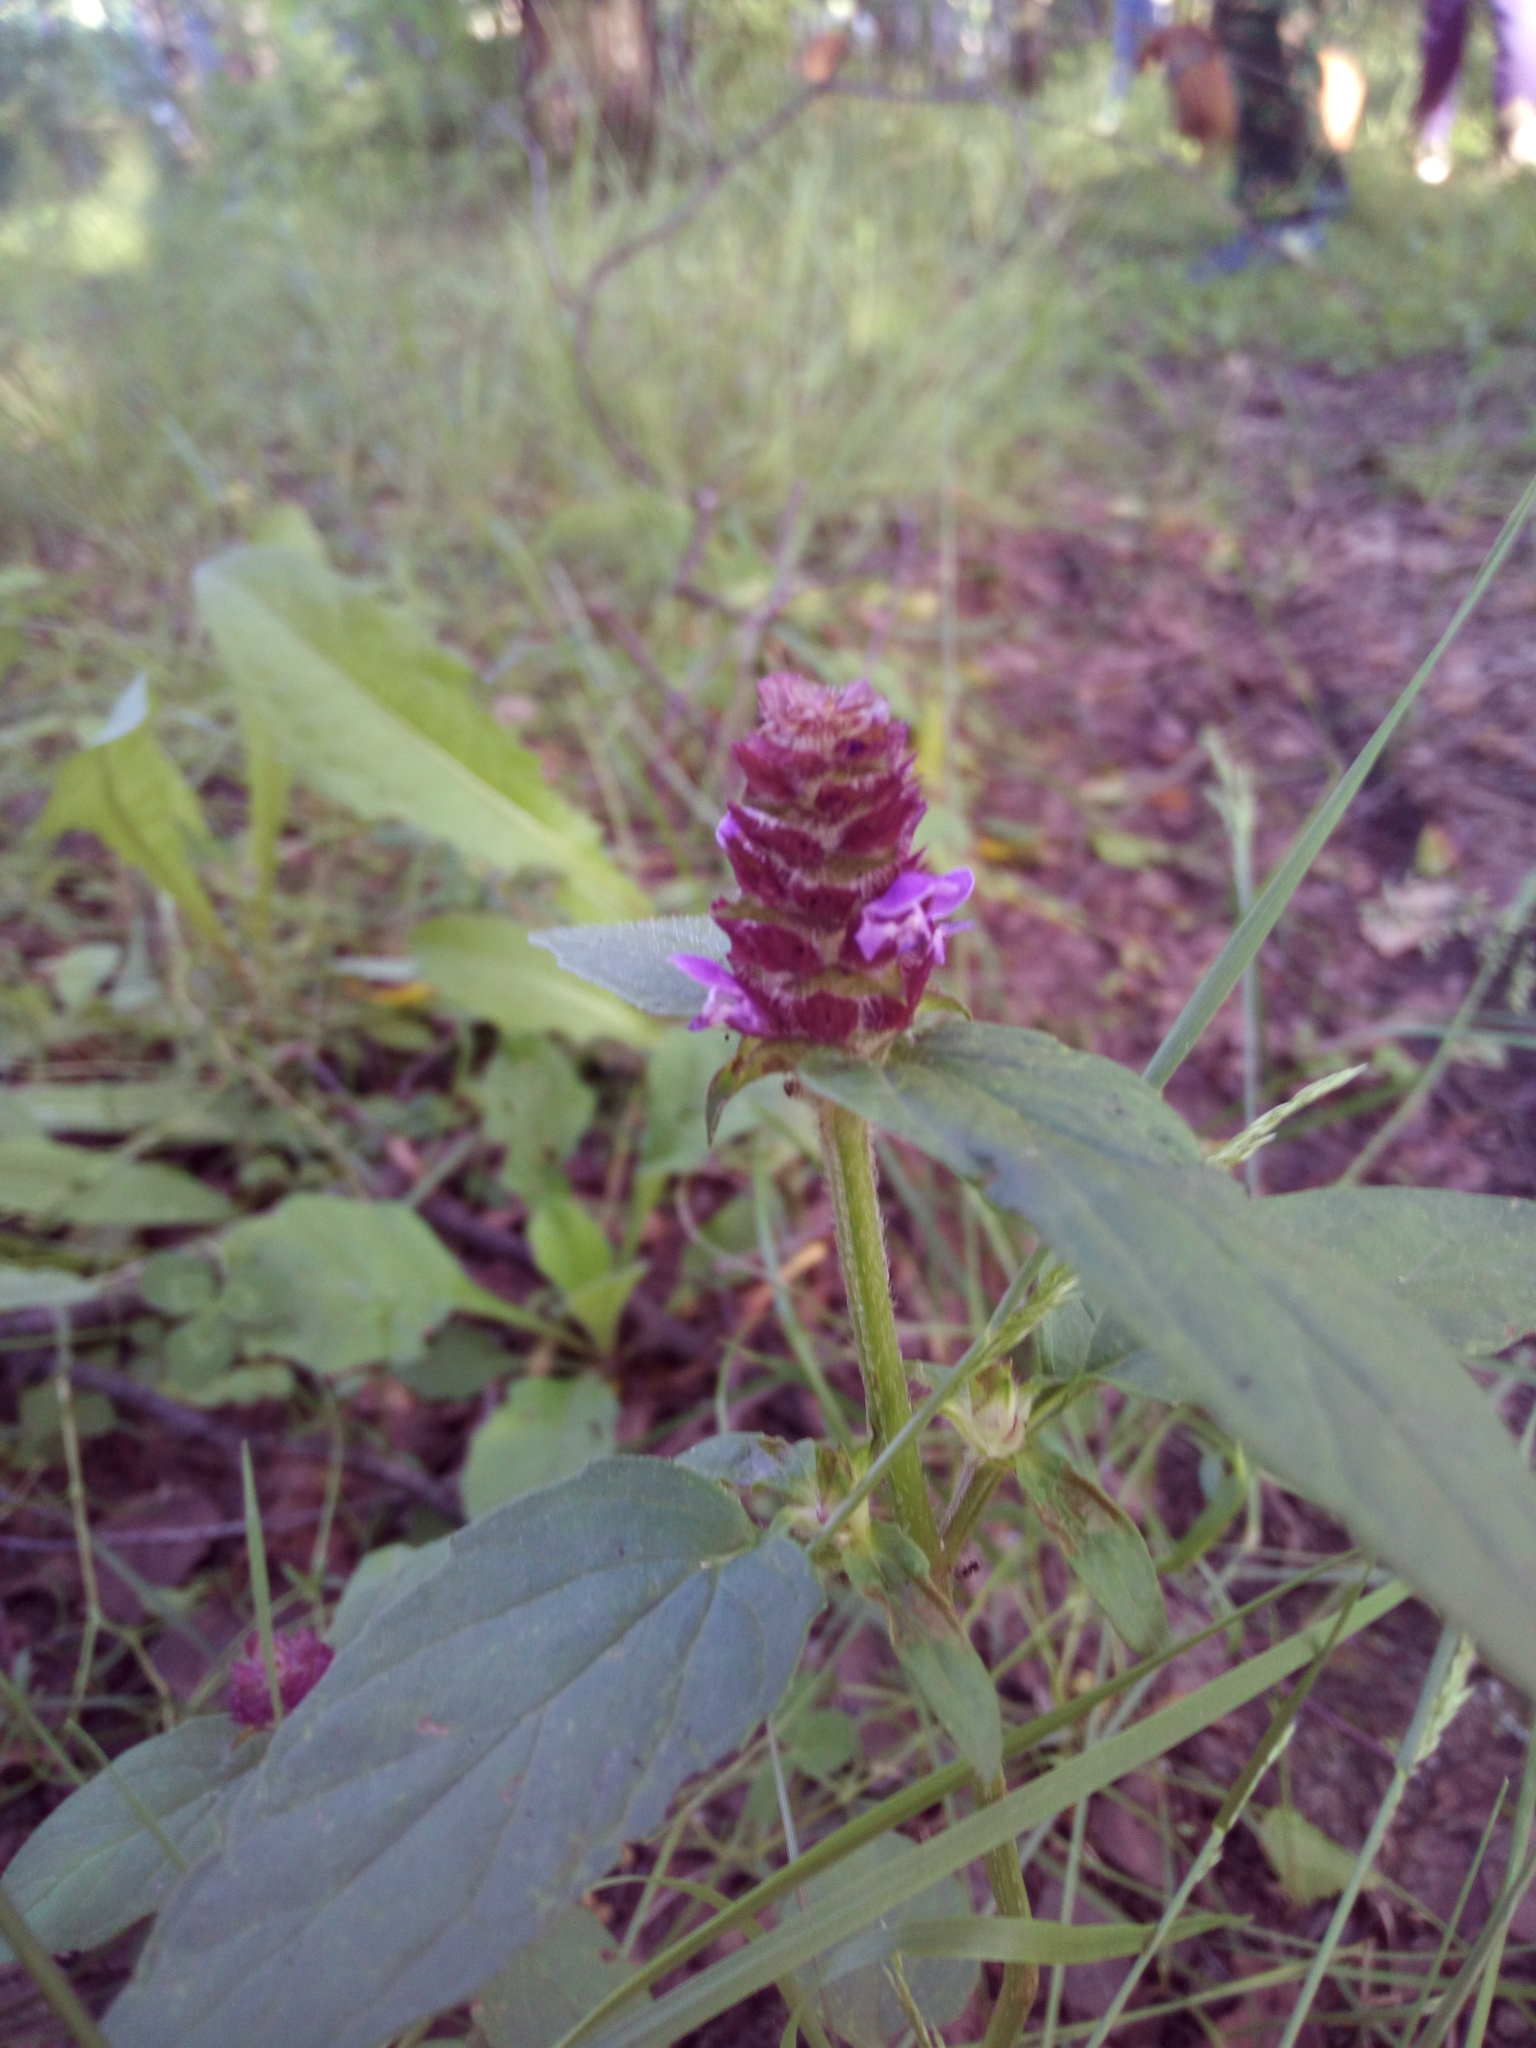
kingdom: Plantae
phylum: Tracheophyta
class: Magnoliopsida
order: Lamiales
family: Lamiaceae
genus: Prunella
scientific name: Prunella vulgaris
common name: Heal-all
